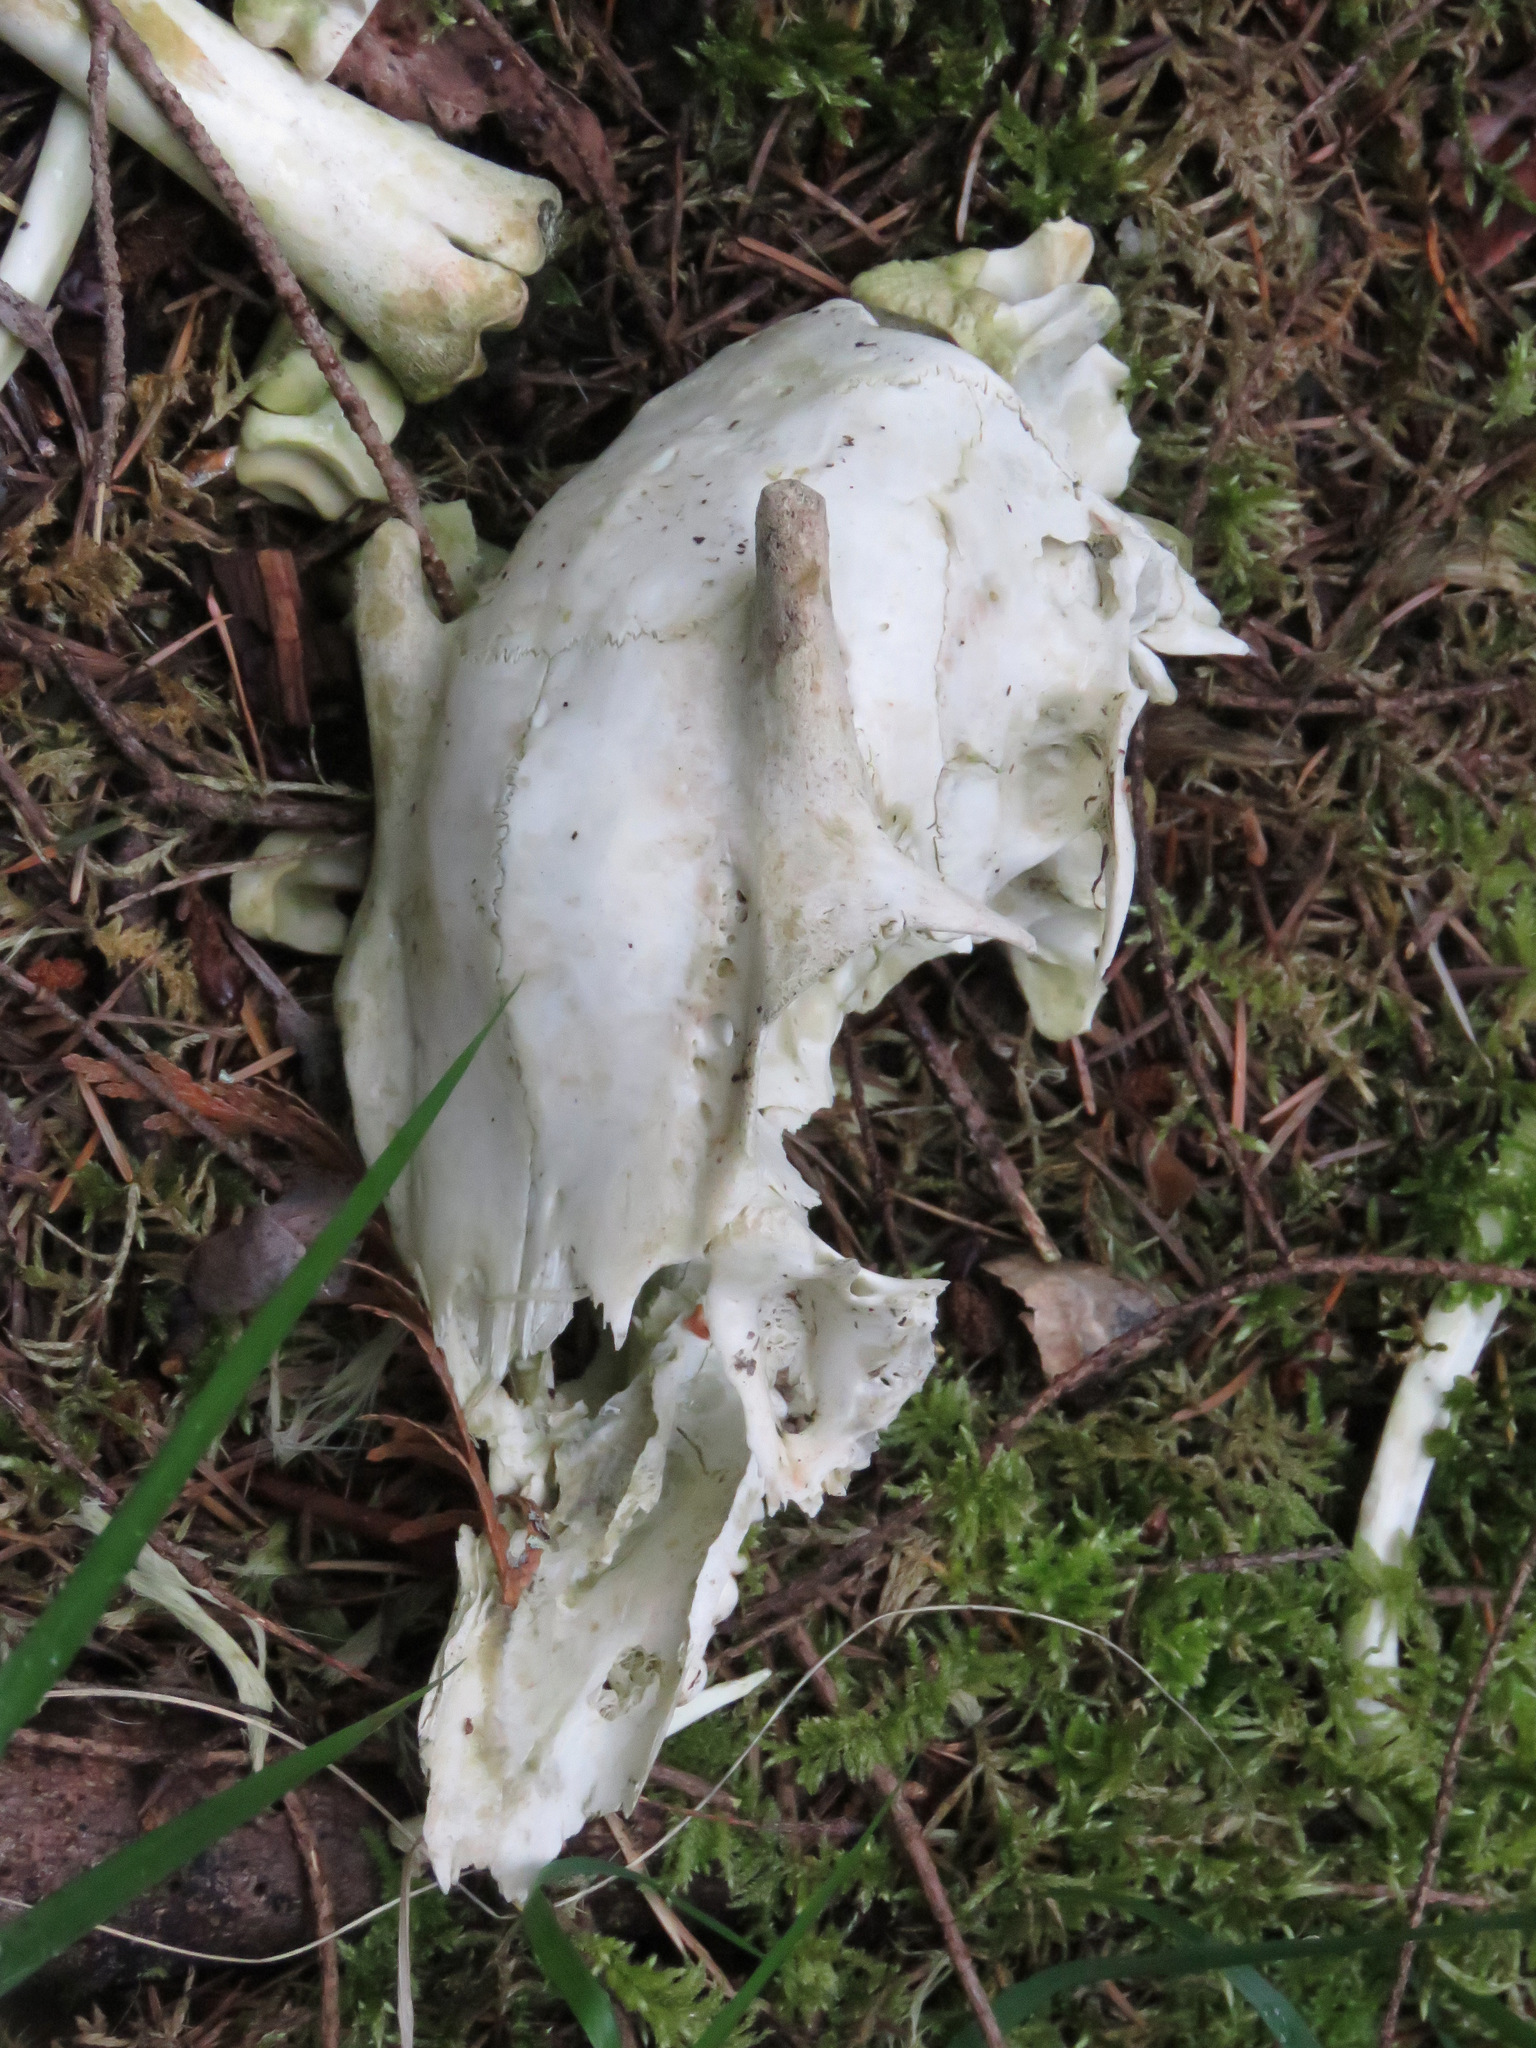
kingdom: Animalia
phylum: Chordata
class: Mammalia
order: Artiodactyla
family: Cervidae
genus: Odocoileus
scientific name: Odocoileus hemionus
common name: Mule deer
